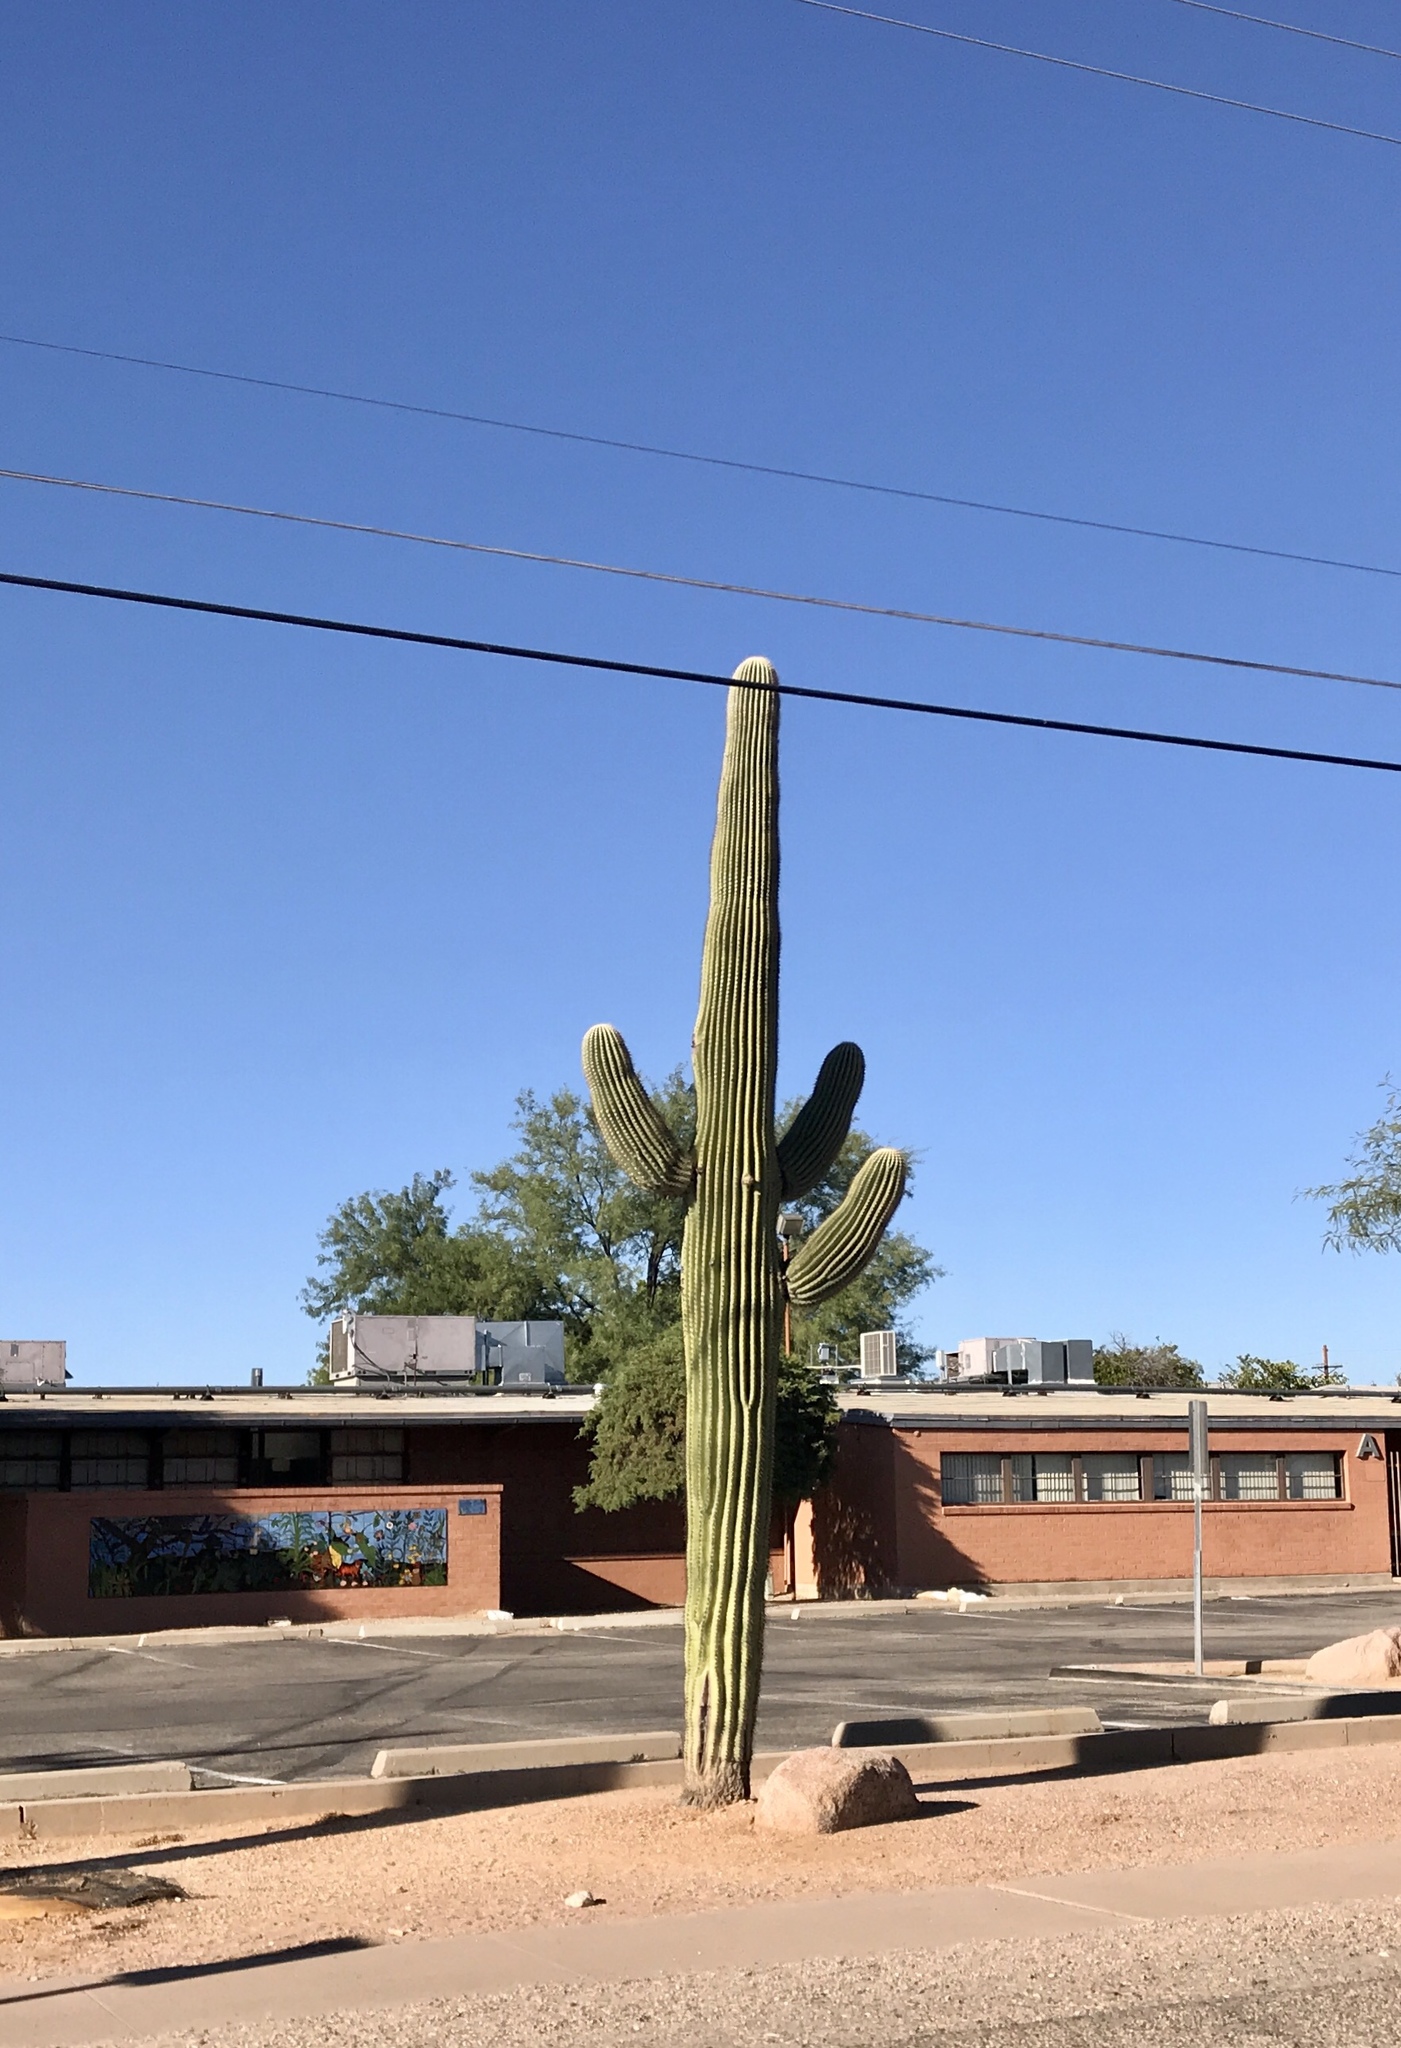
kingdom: Plantae
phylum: Tracheophyta
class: Magnoliopsida
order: Caryophyllales
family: Cactaceae
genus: Carnegiea
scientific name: Carnegiea gigantea
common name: Saguaro
